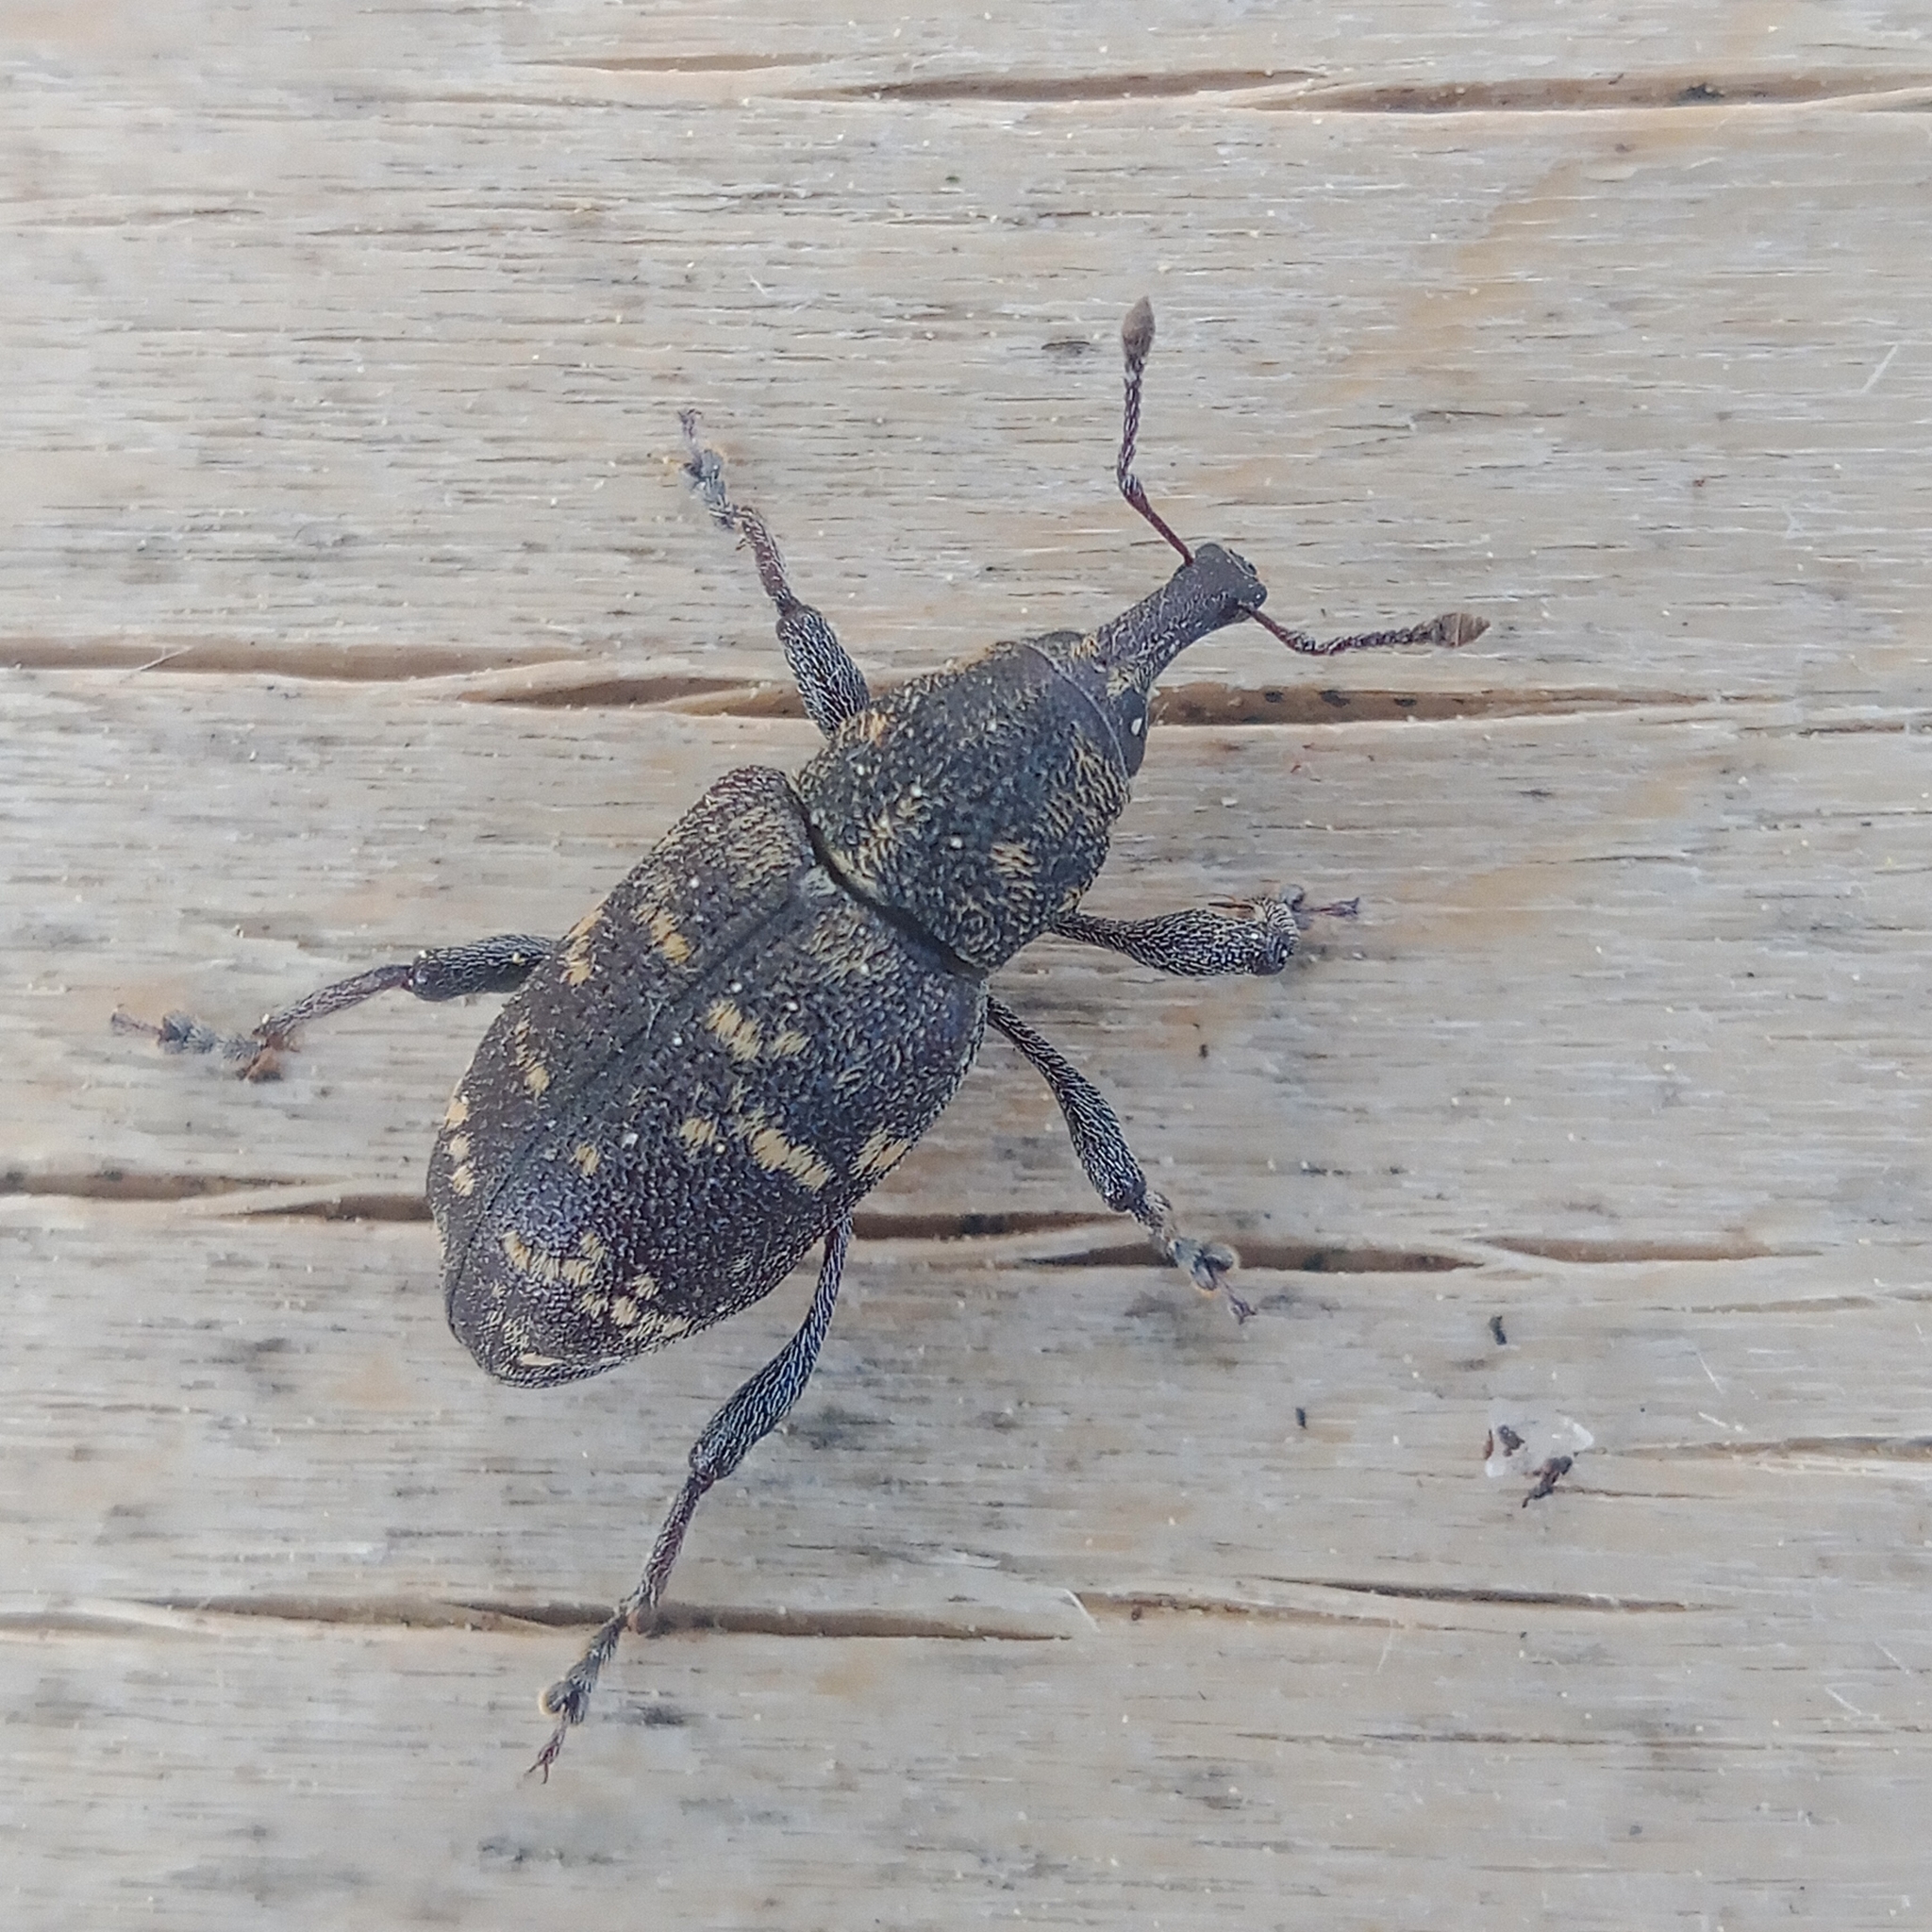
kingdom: Animalia
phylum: Arthropoda
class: Insecta
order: Coleoptera
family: Curculionidae
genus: Hylobius
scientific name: Hylobius abietis
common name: Large pine weevil
